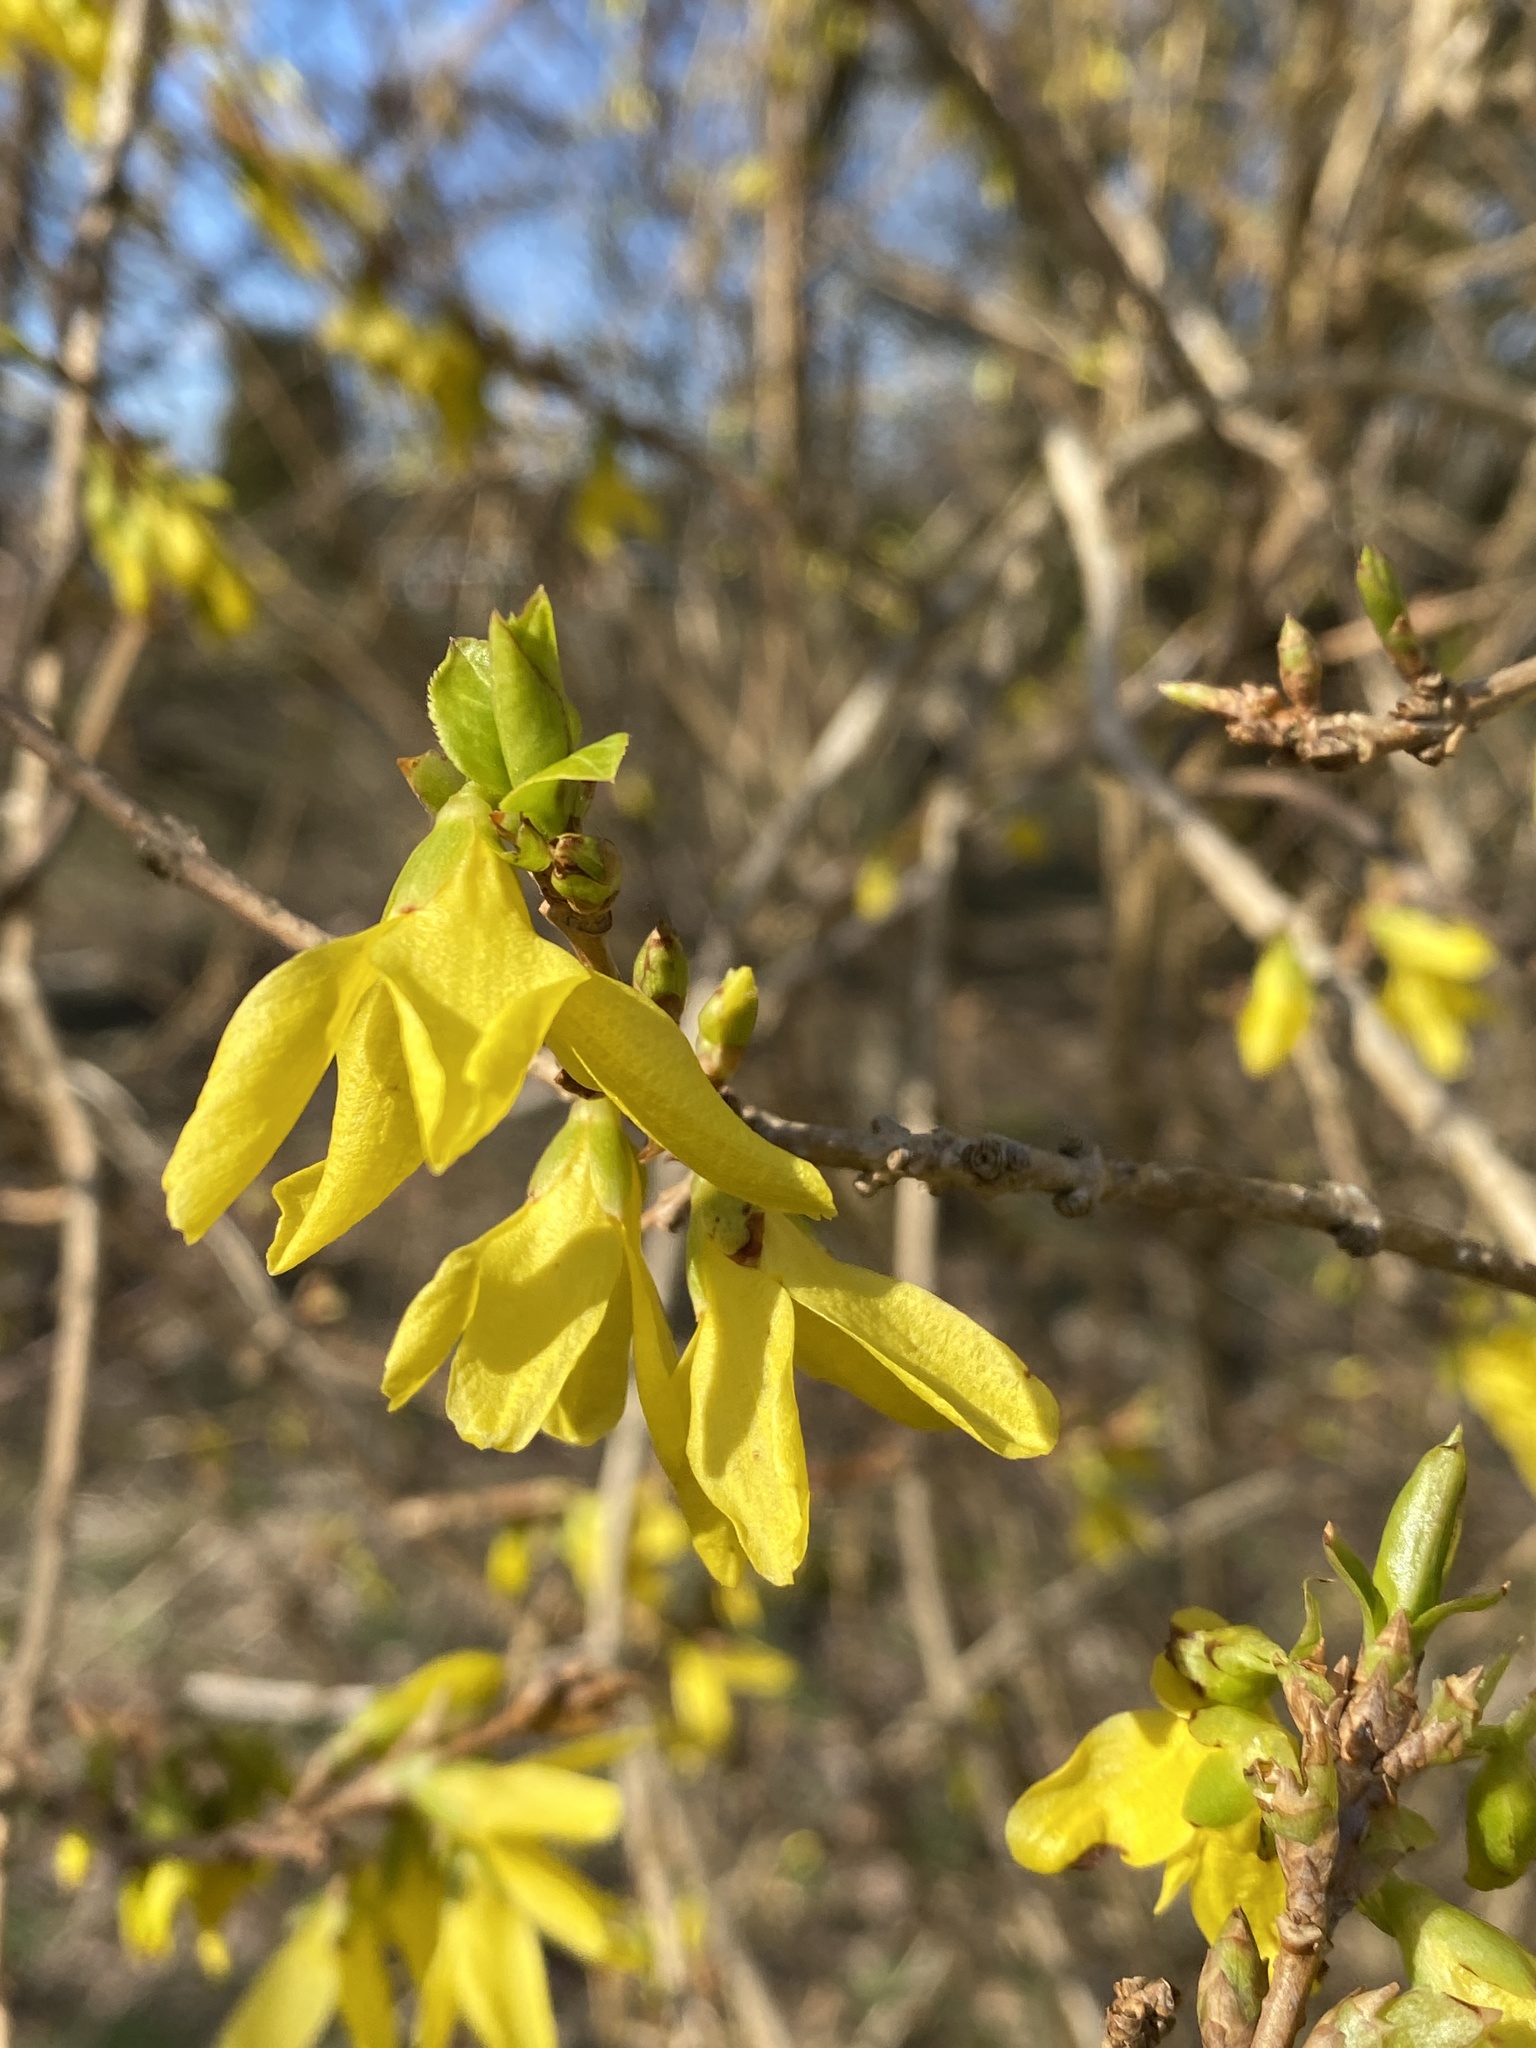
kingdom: Plantae
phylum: Tracheophyta
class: Magnoliopsida
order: Lamiales
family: Oleaceae
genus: Forsythia
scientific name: Forsythia intermedia
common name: Forsythia
